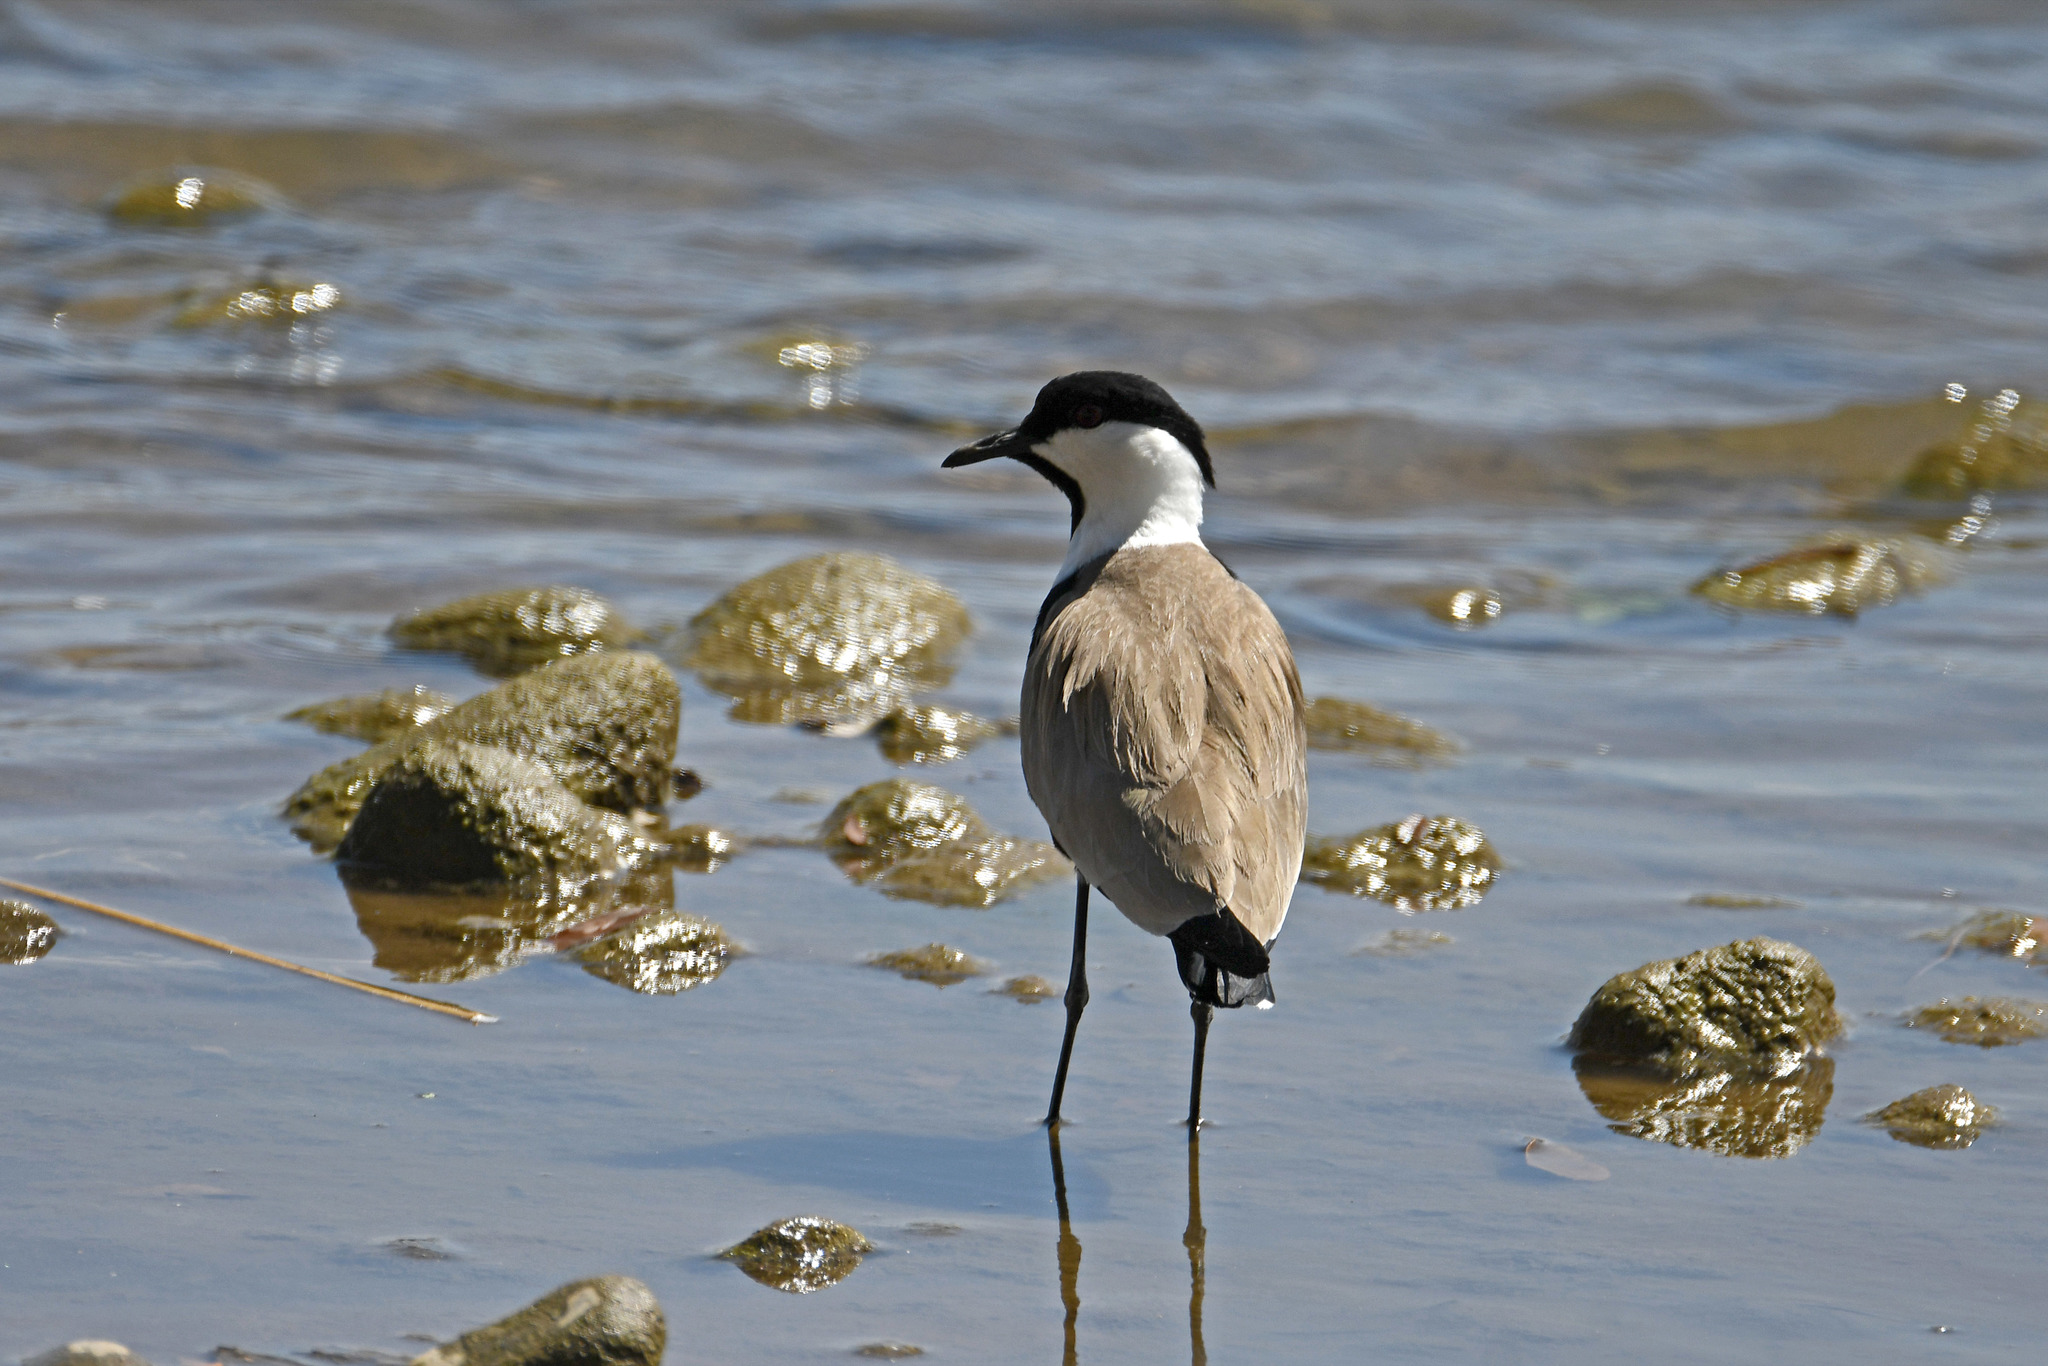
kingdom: Animalia
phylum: Chordata
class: Aves
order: Charadriiformes
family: Charadriidae
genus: Vanellus
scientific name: Vanellus spinosus
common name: Spur-winged lapwing
